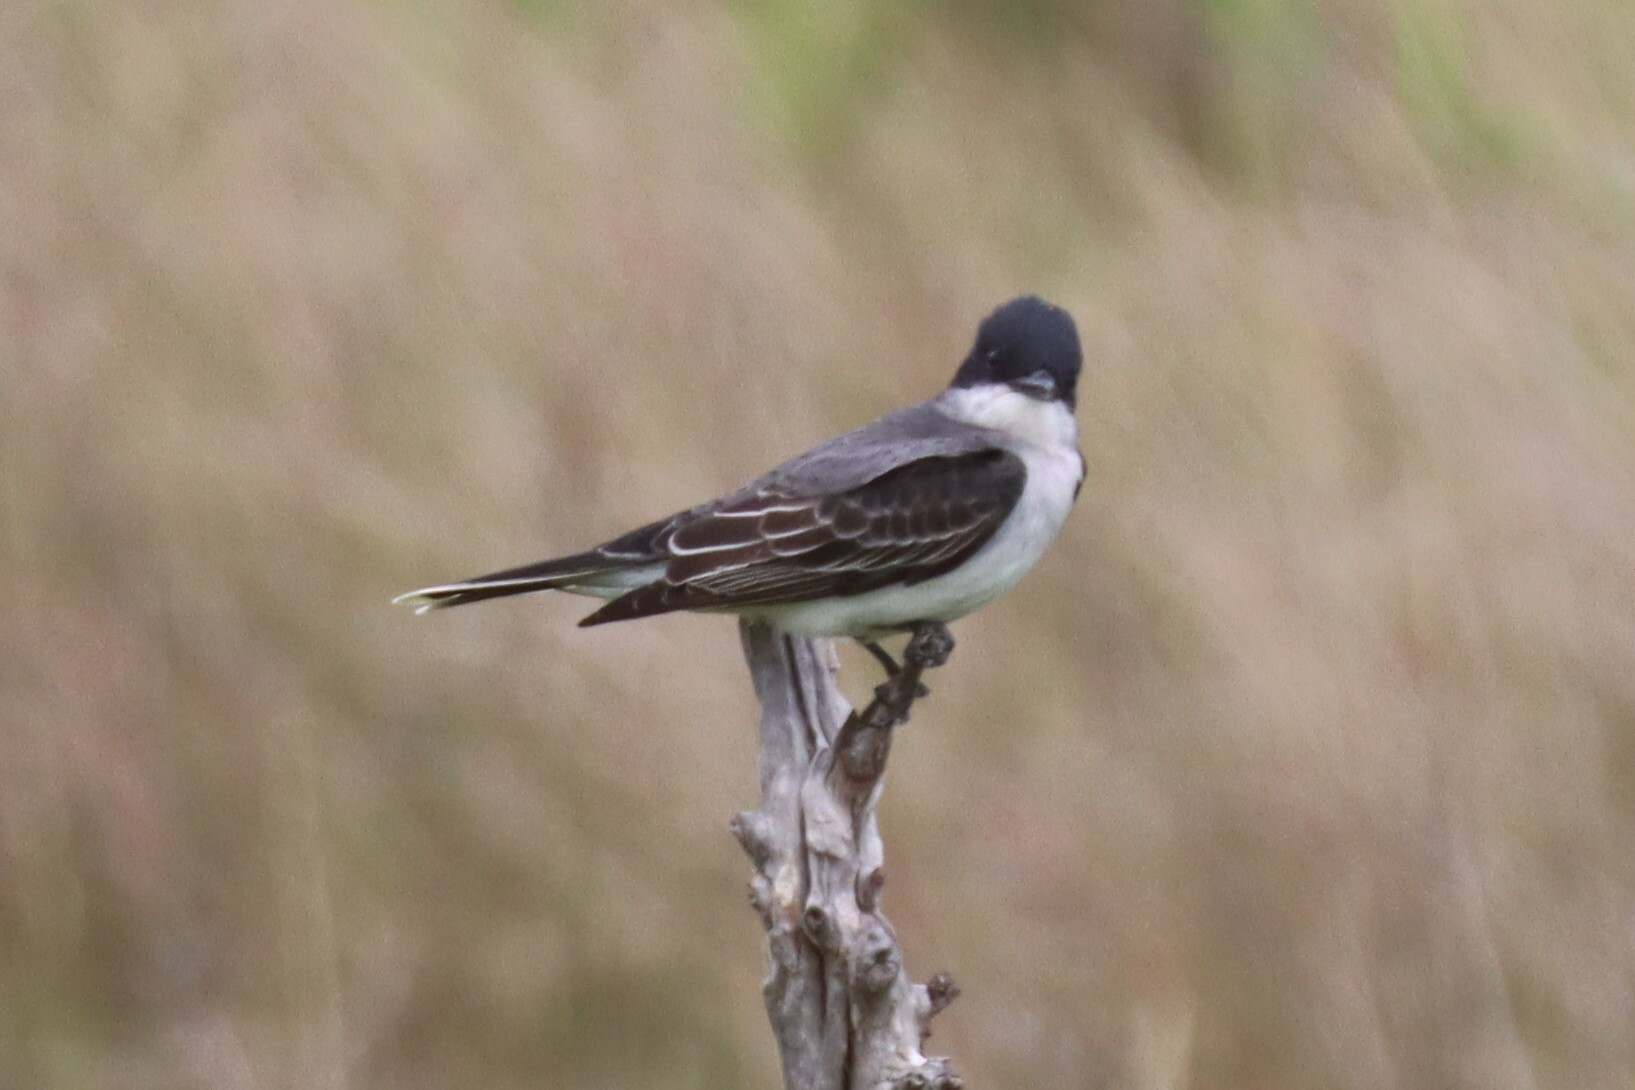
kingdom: Animalia
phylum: Chordata
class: Aves
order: Passeriformes
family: Tyrannidae
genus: Tyrannus
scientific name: Tyrannus tyrannus
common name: Eastern kingbird
